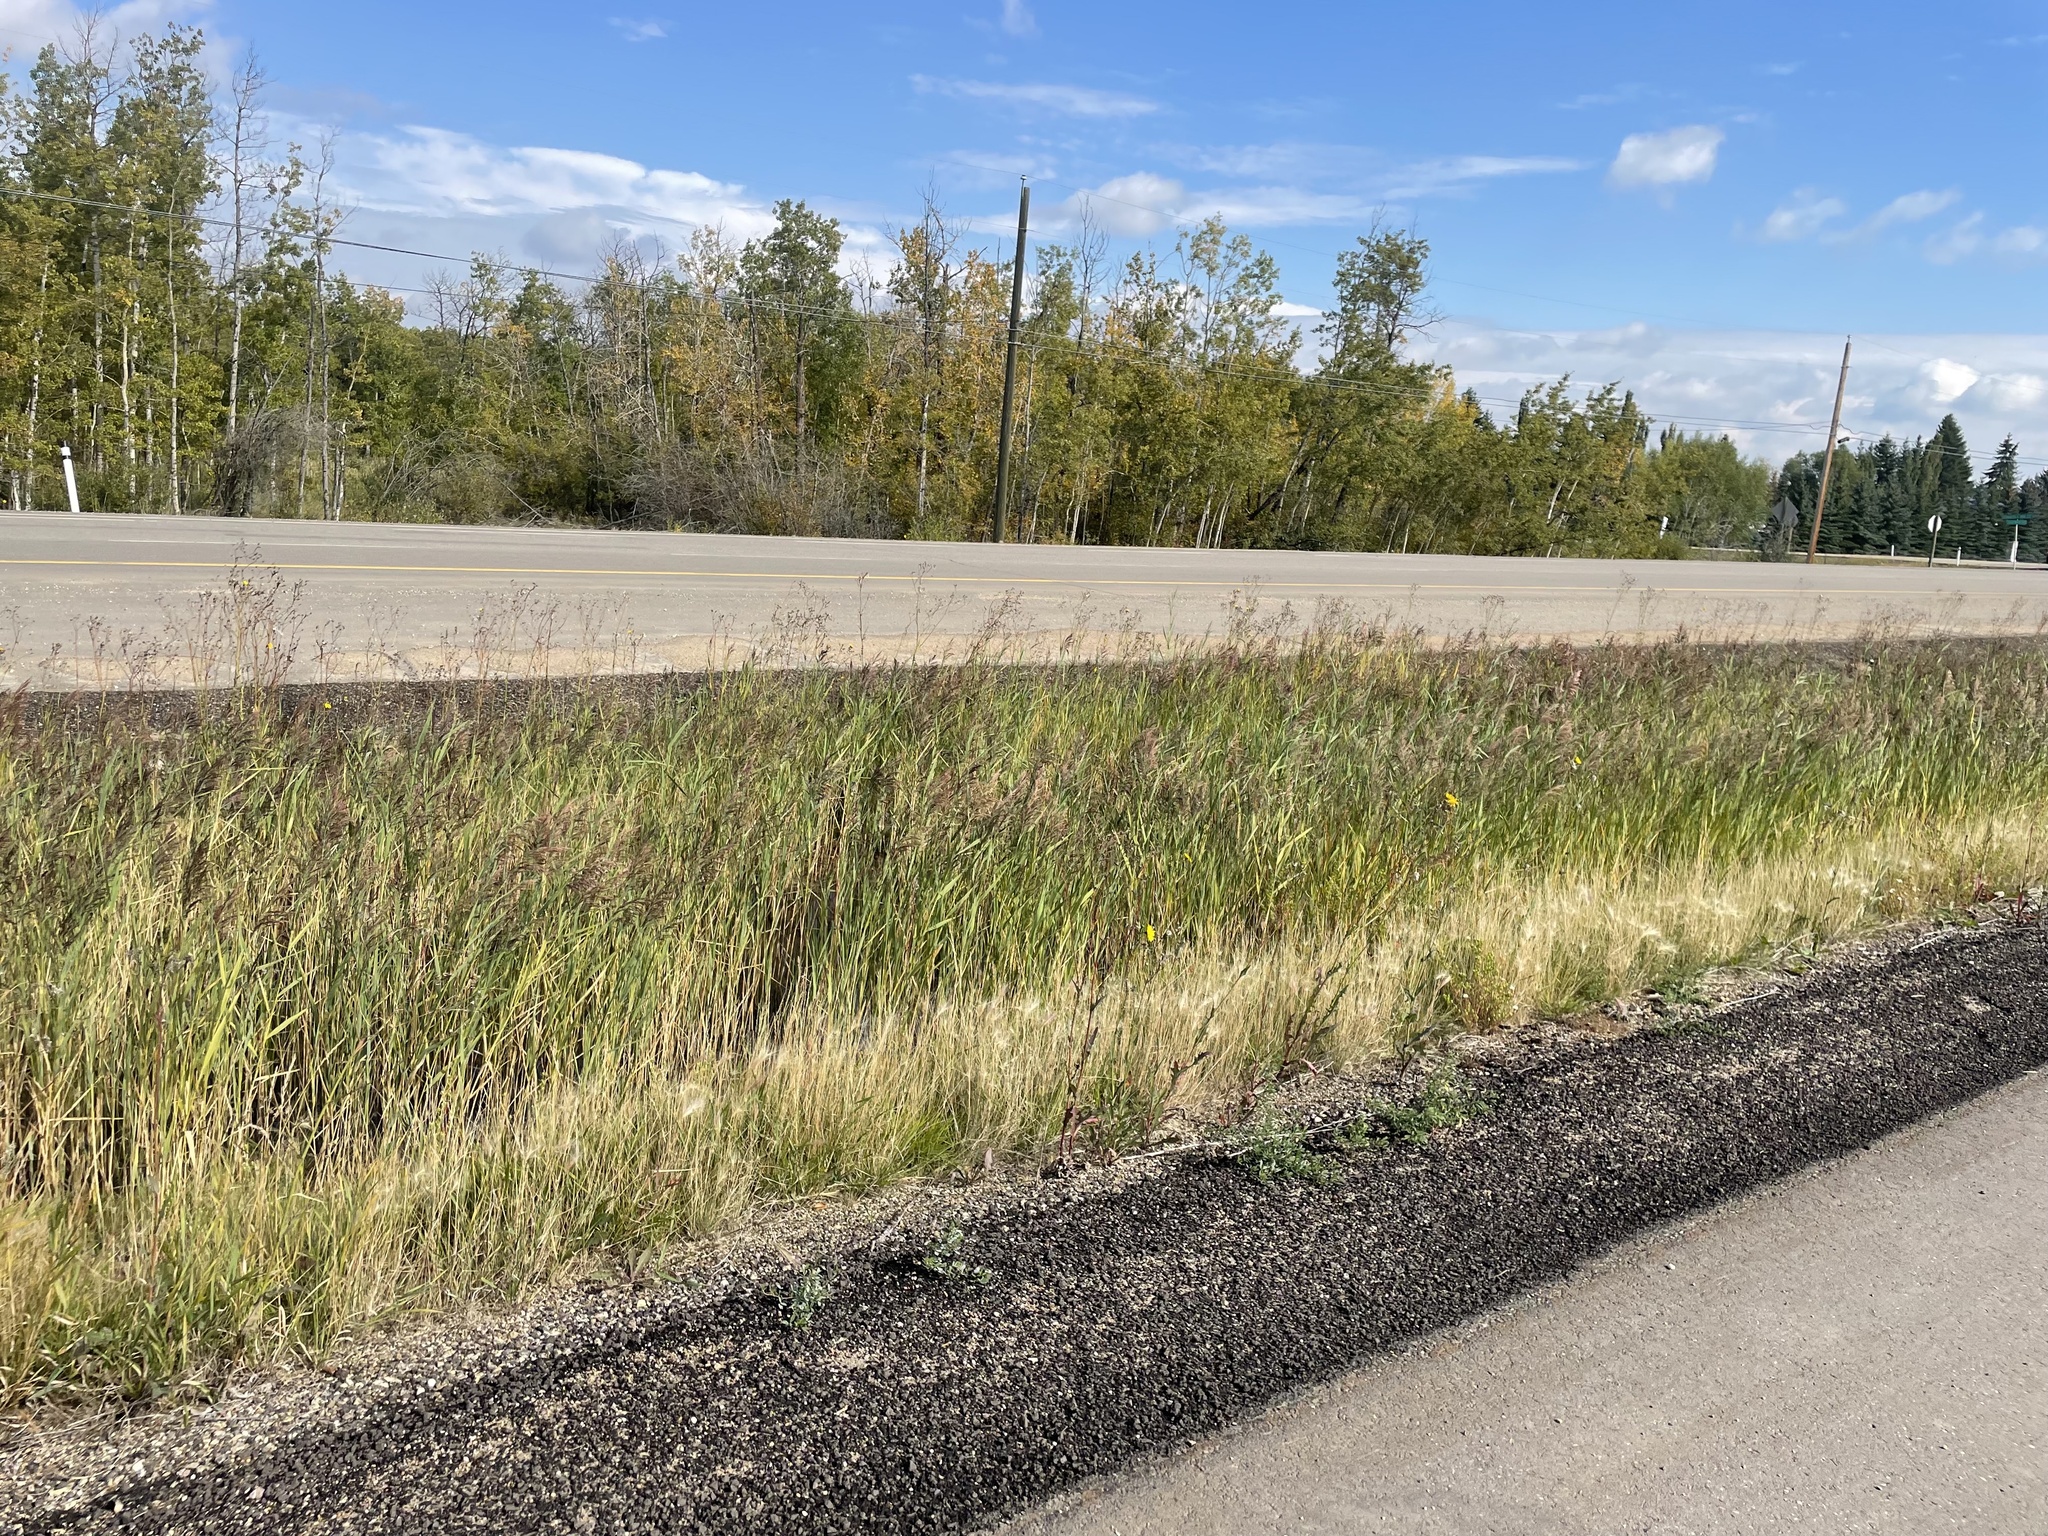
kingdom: Plantae
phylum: Tracheophyta
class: Liliopsida
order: Poales
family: Poaceae
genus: Phragmites
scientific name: Phragmites australis
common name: Common reed
